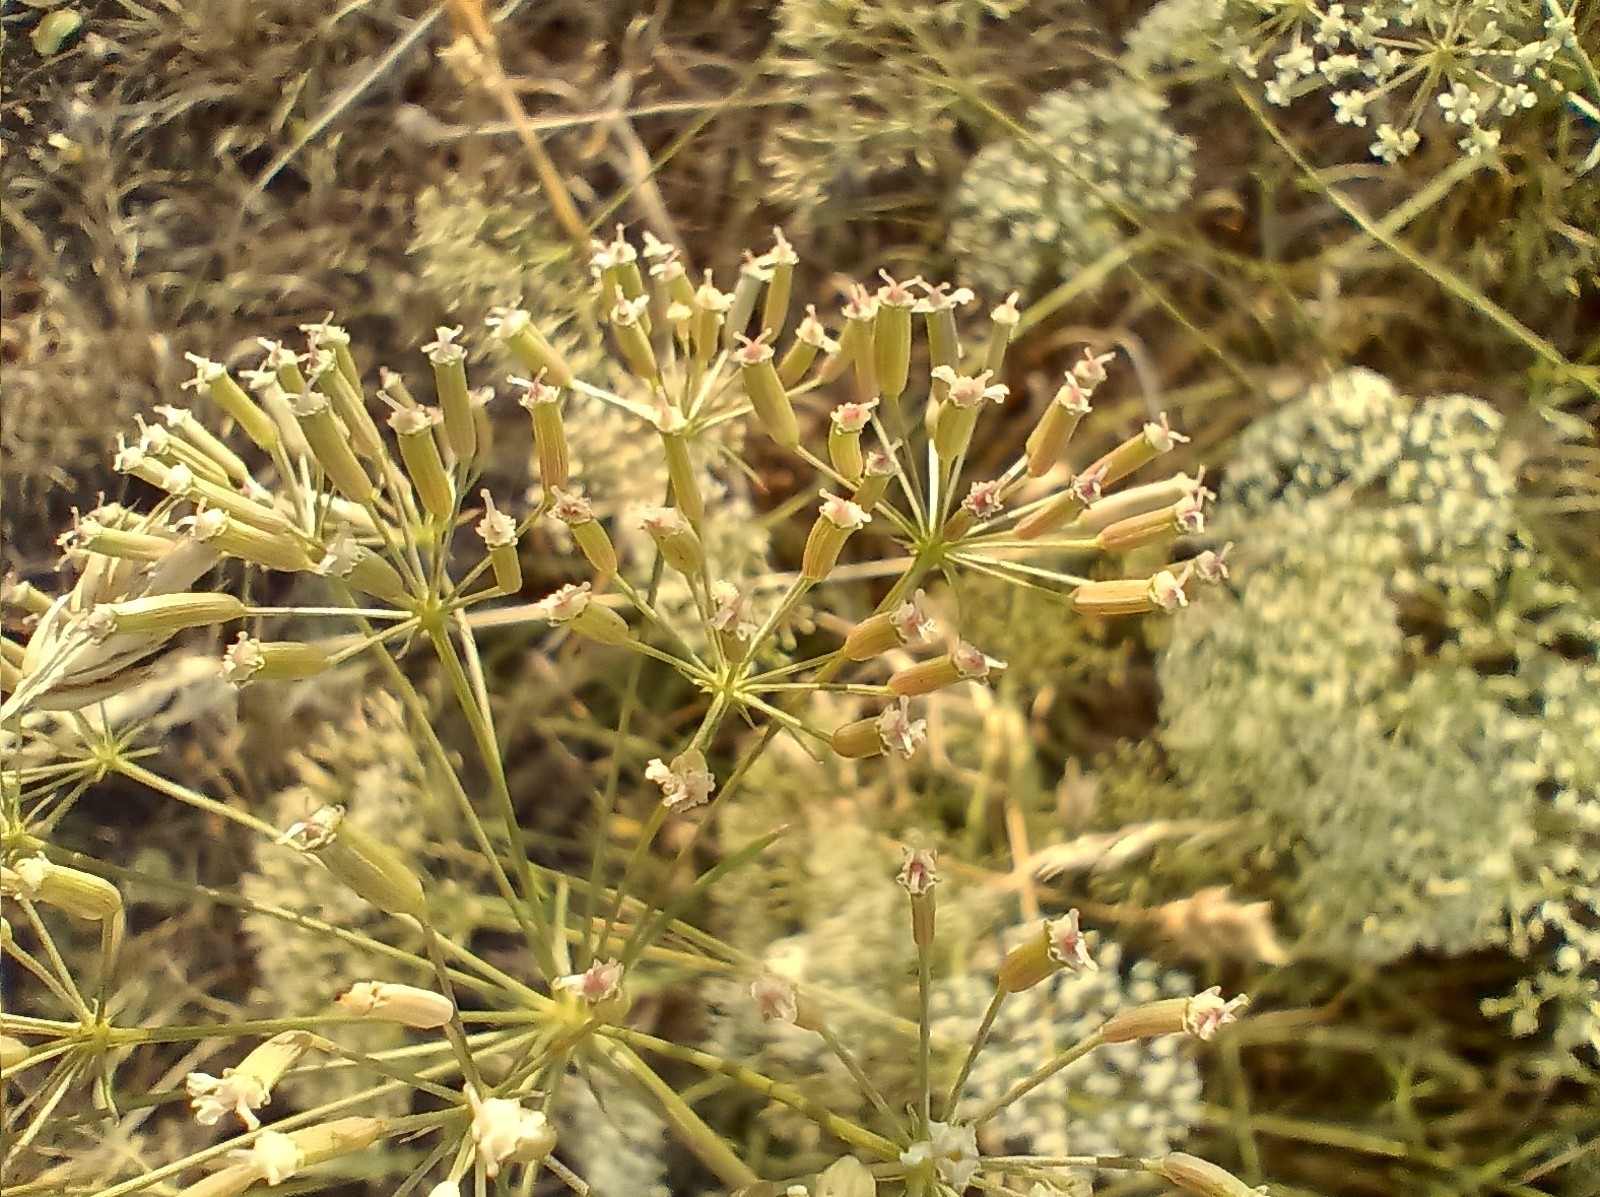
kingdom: Plantae
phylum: Tracheophyta
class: Magnoliopsida
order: Apiales
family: Apiaceae
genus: Falcaria
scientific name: Falcaria vulgaris
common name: Longleaf
